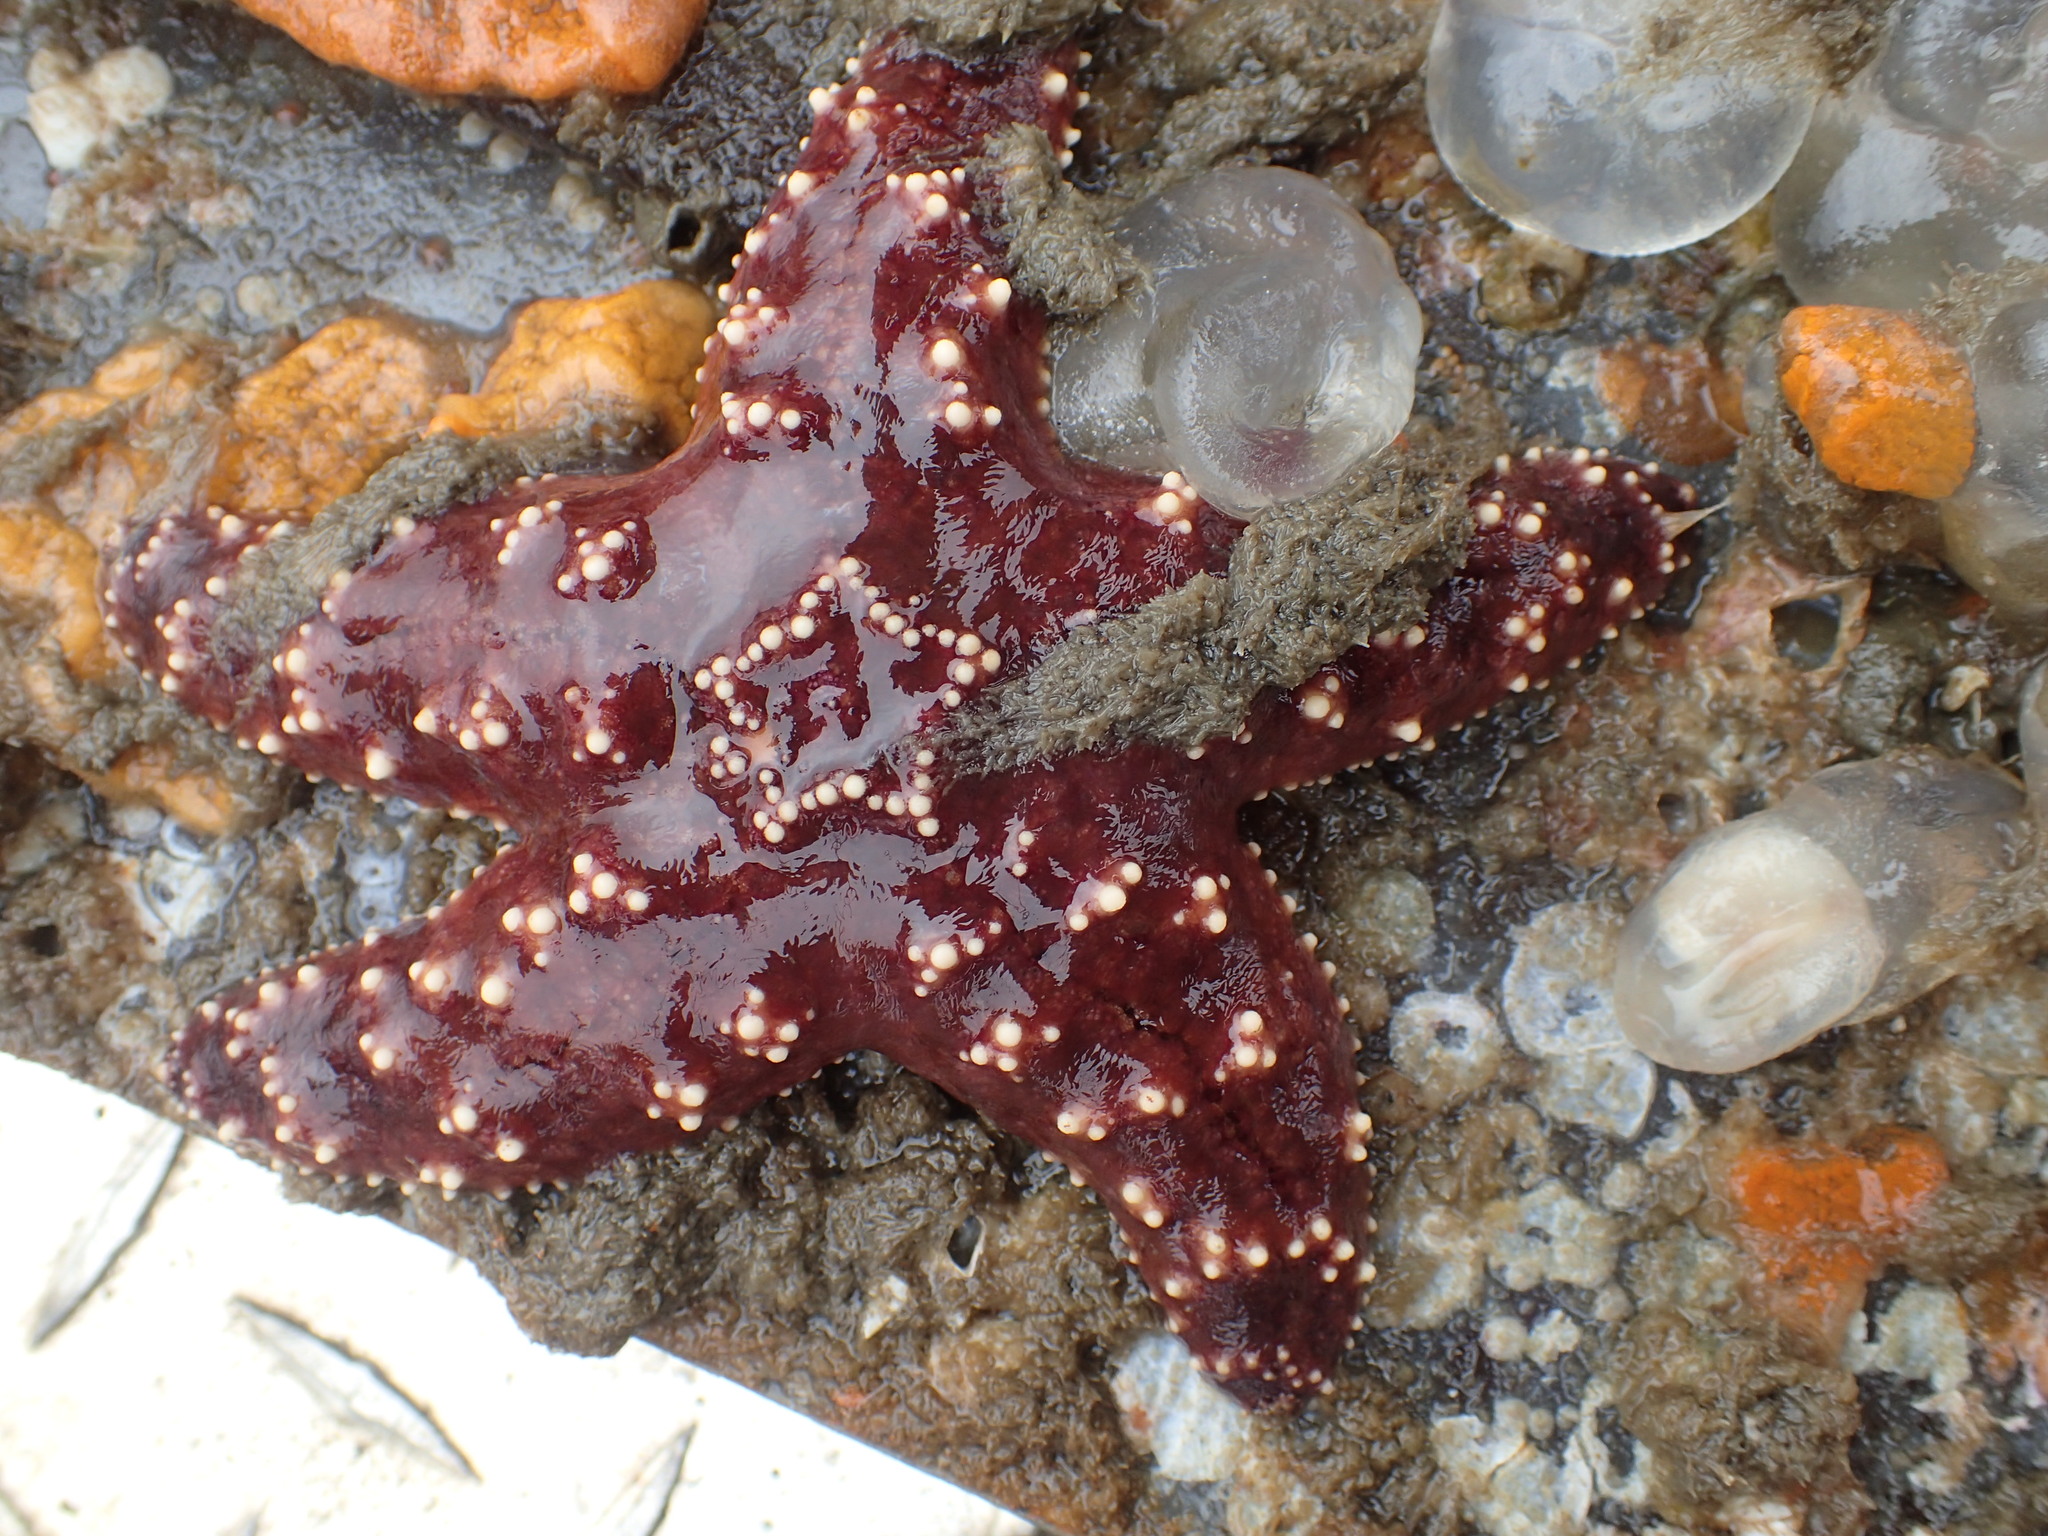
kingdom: Animalia
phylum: Echinodermata
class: Asteroidea
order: Forcipulatida
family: Asteriidae
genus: Pisaster
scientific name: Pisaster ochraceus
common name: Ochre stars
